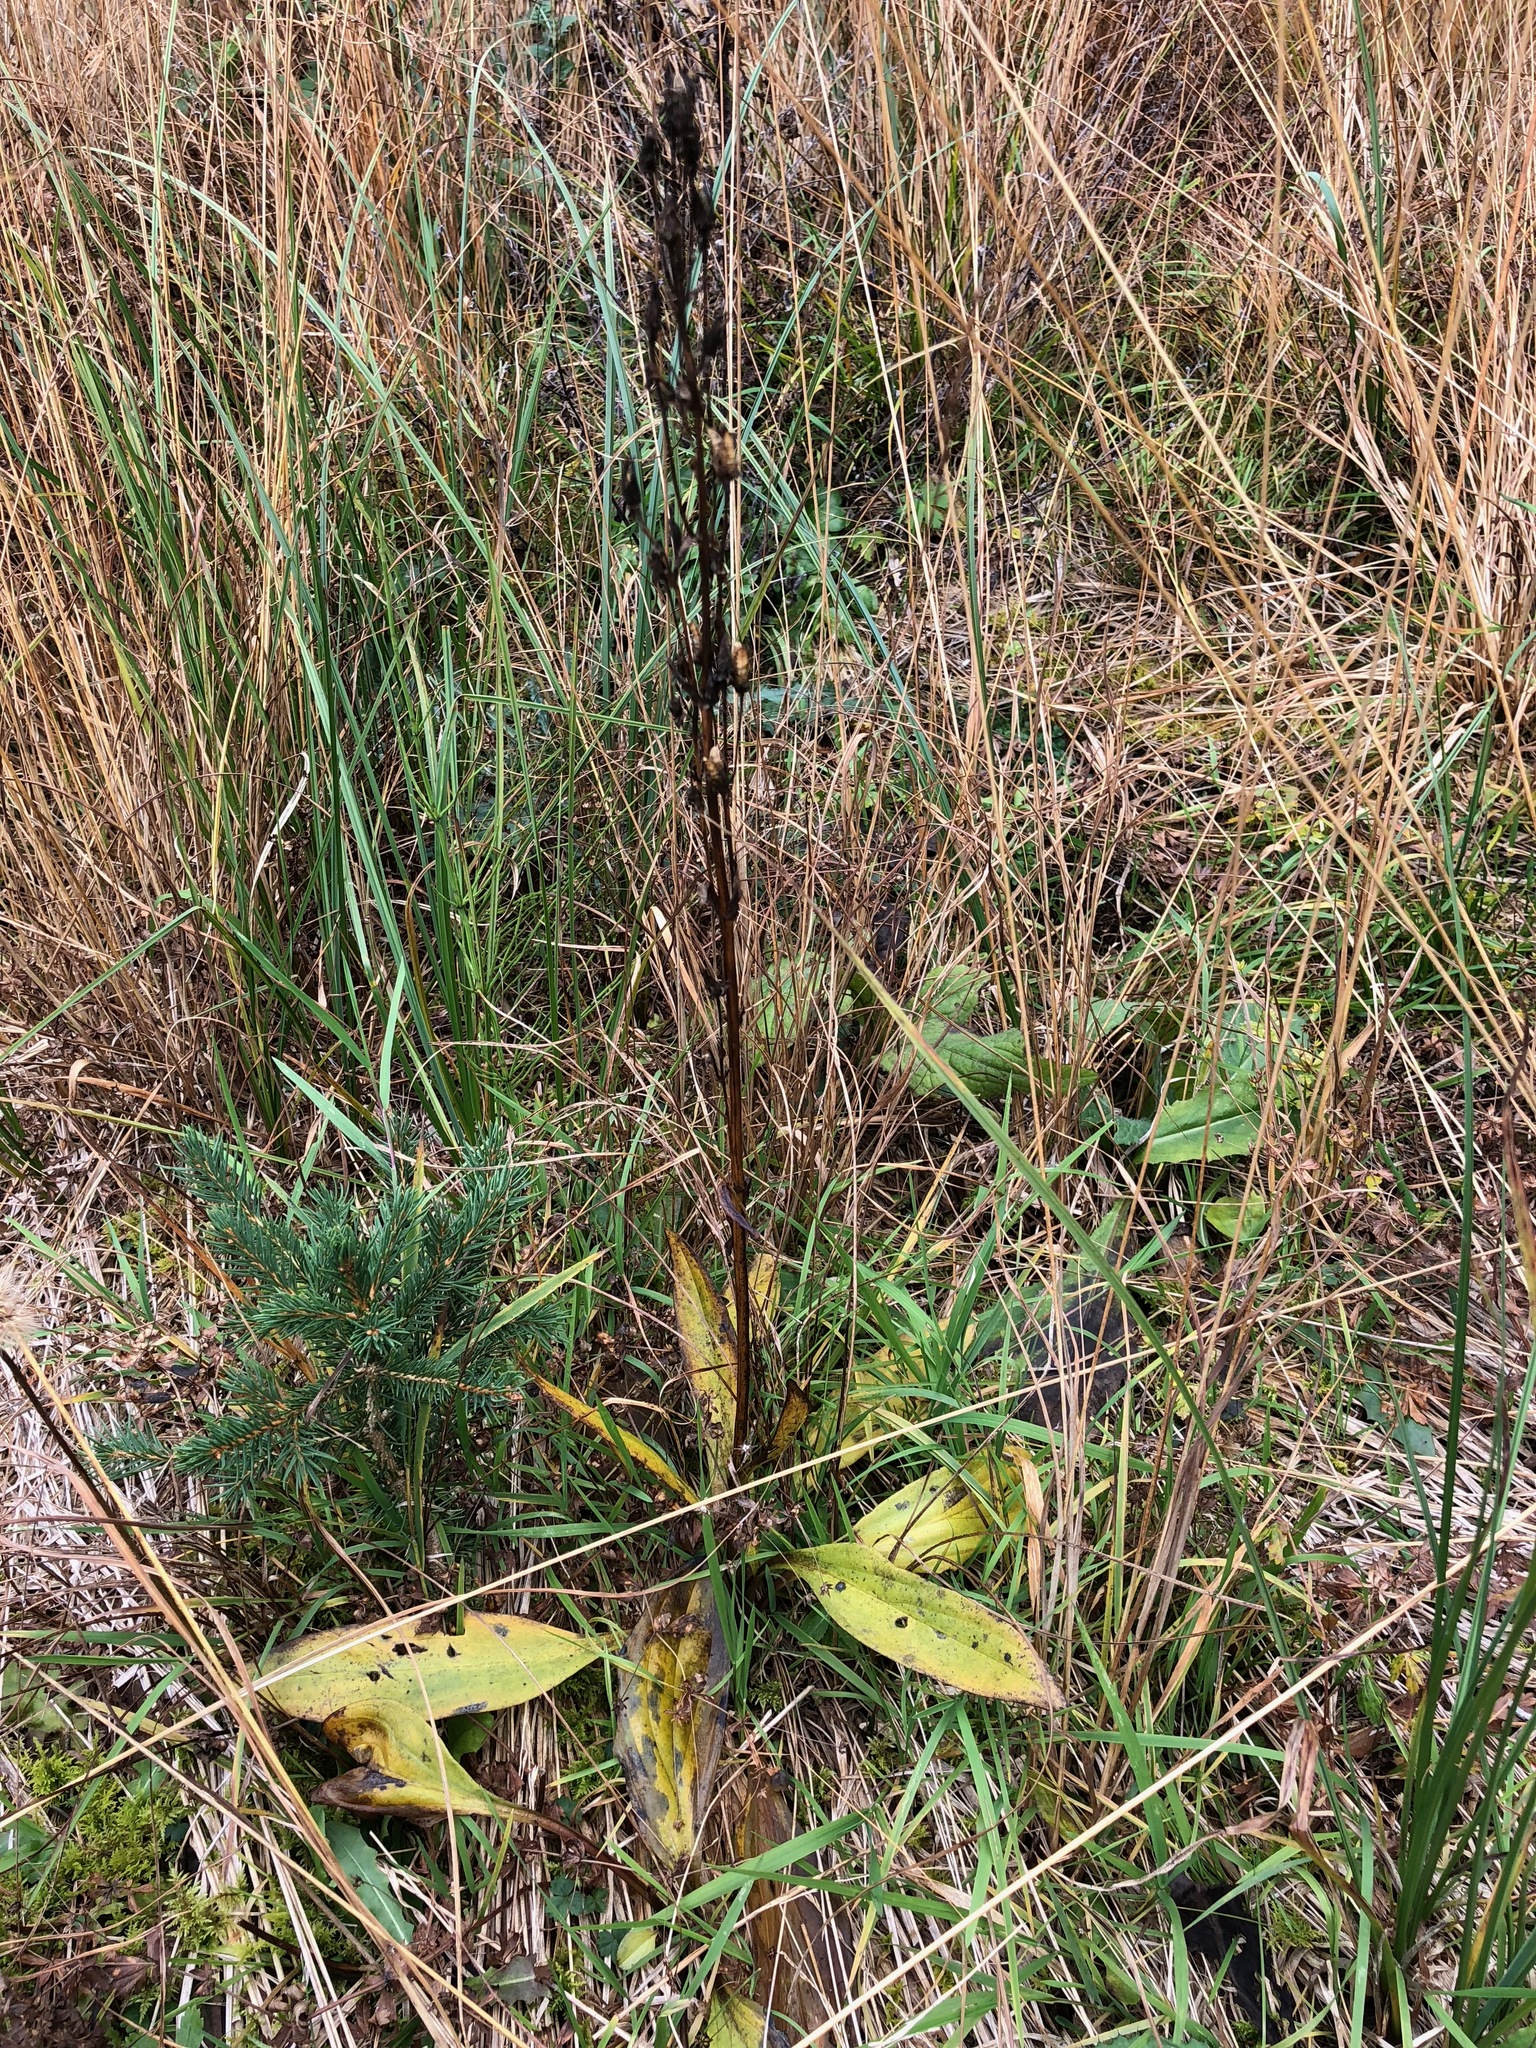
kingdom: Plantae
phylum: Tracheophyta
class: Magnoliopsida
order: Gentianales
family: Gentianaceae
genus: Swertia
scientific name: Swertia perennis
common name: Alpine bog swertia
